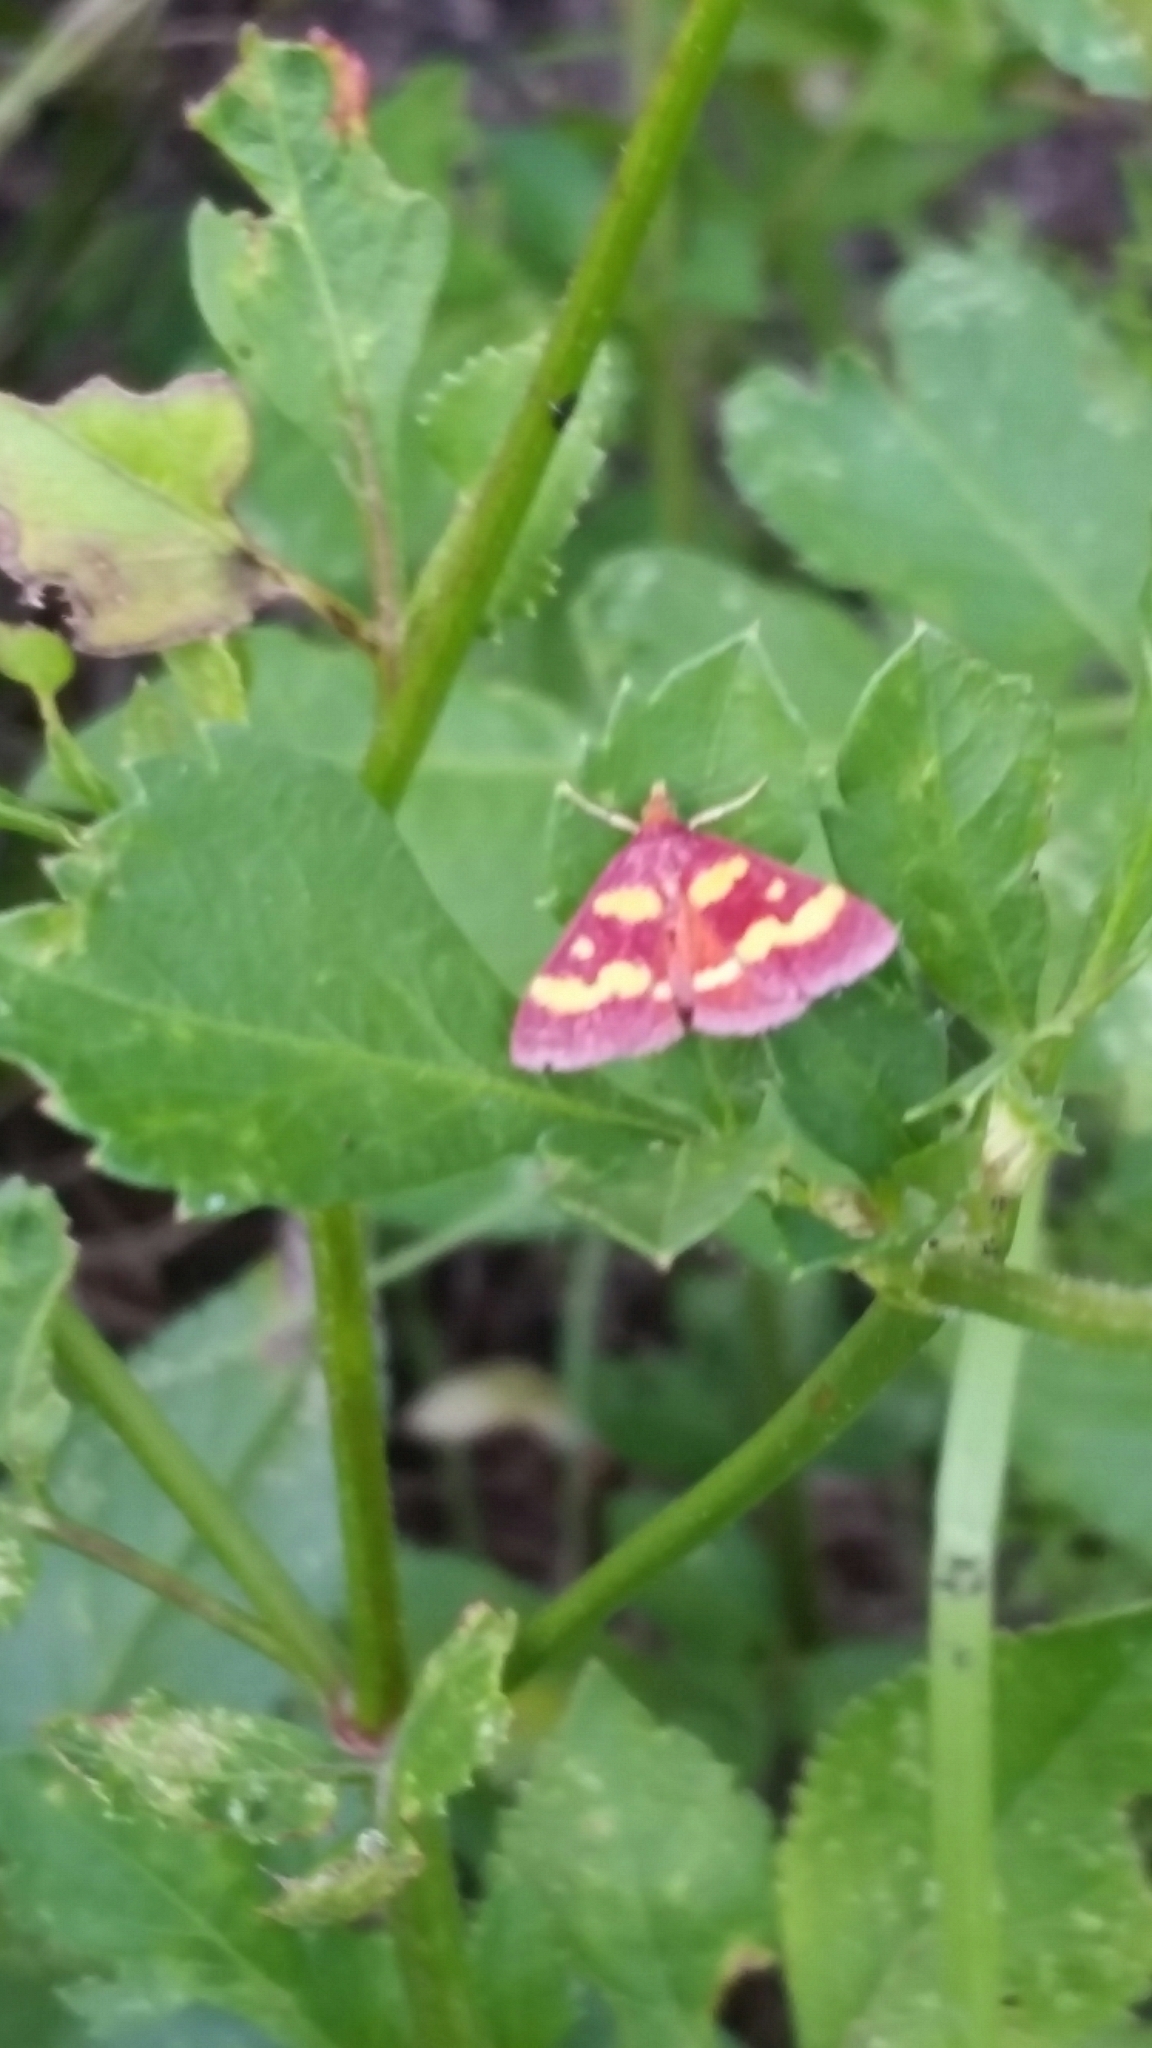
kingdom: Animalia
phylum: Arthropoda
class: Insecta
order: Lepidoptera
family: Crambidae
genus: Pyrausta
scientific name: Pyrausta tyralis
